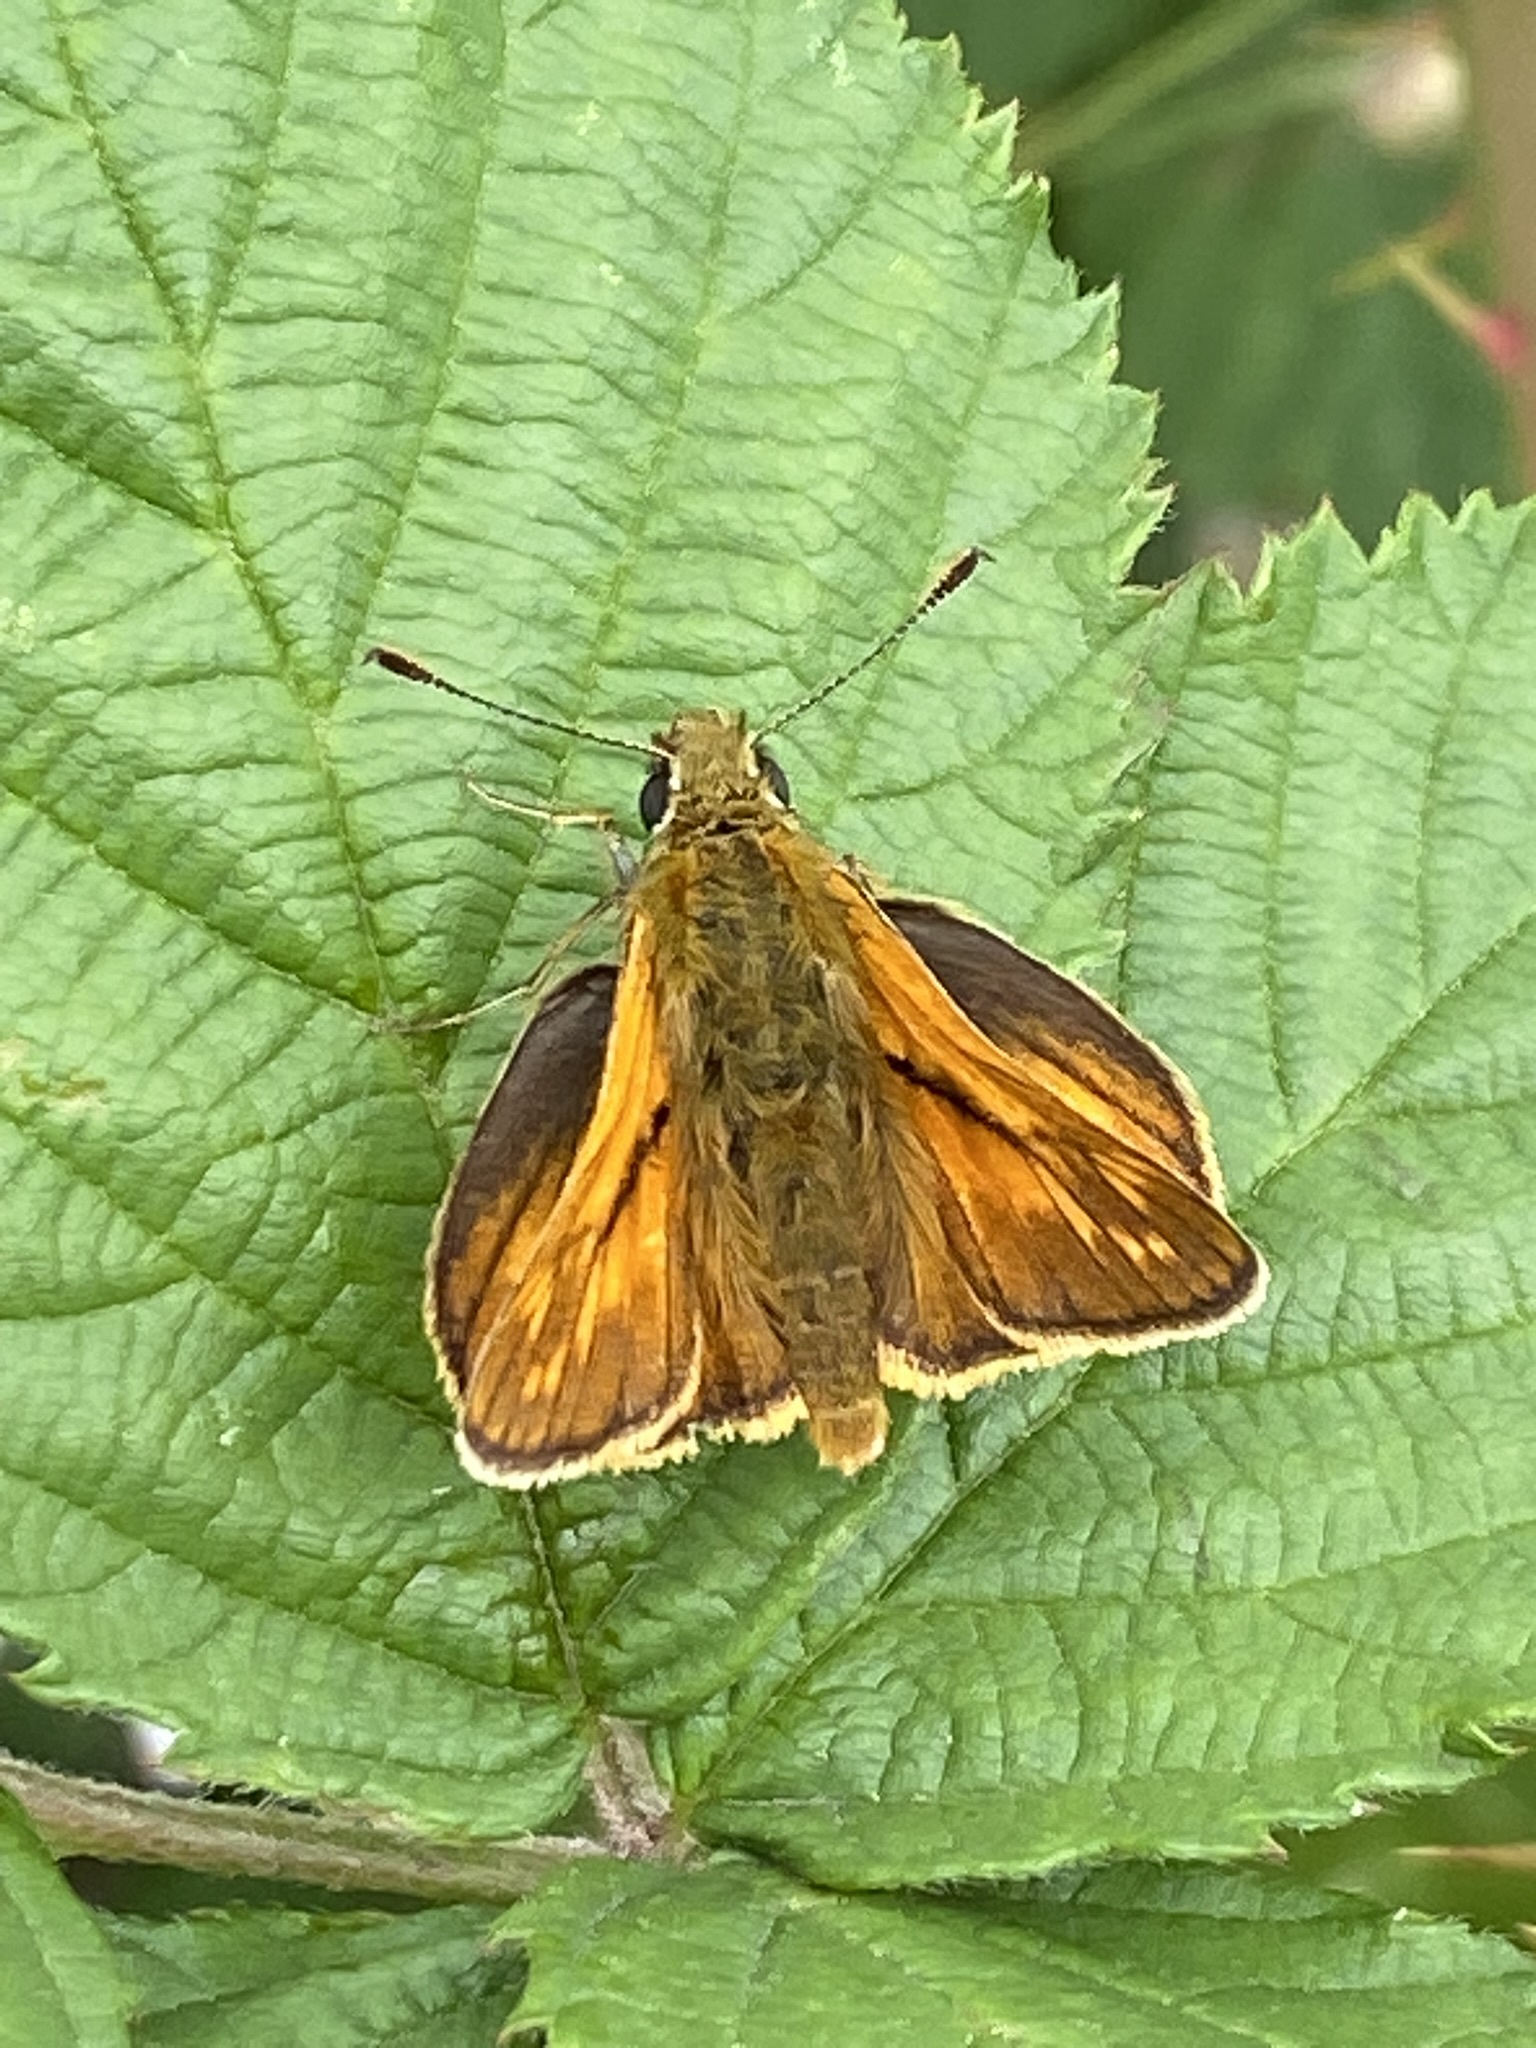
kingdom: Animalia
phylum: Arthropoda
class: Insecta
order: Lepidoptera
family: Hesperiidae
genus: Ochlodes
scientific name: Ochlodes venata
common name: Large skipper
